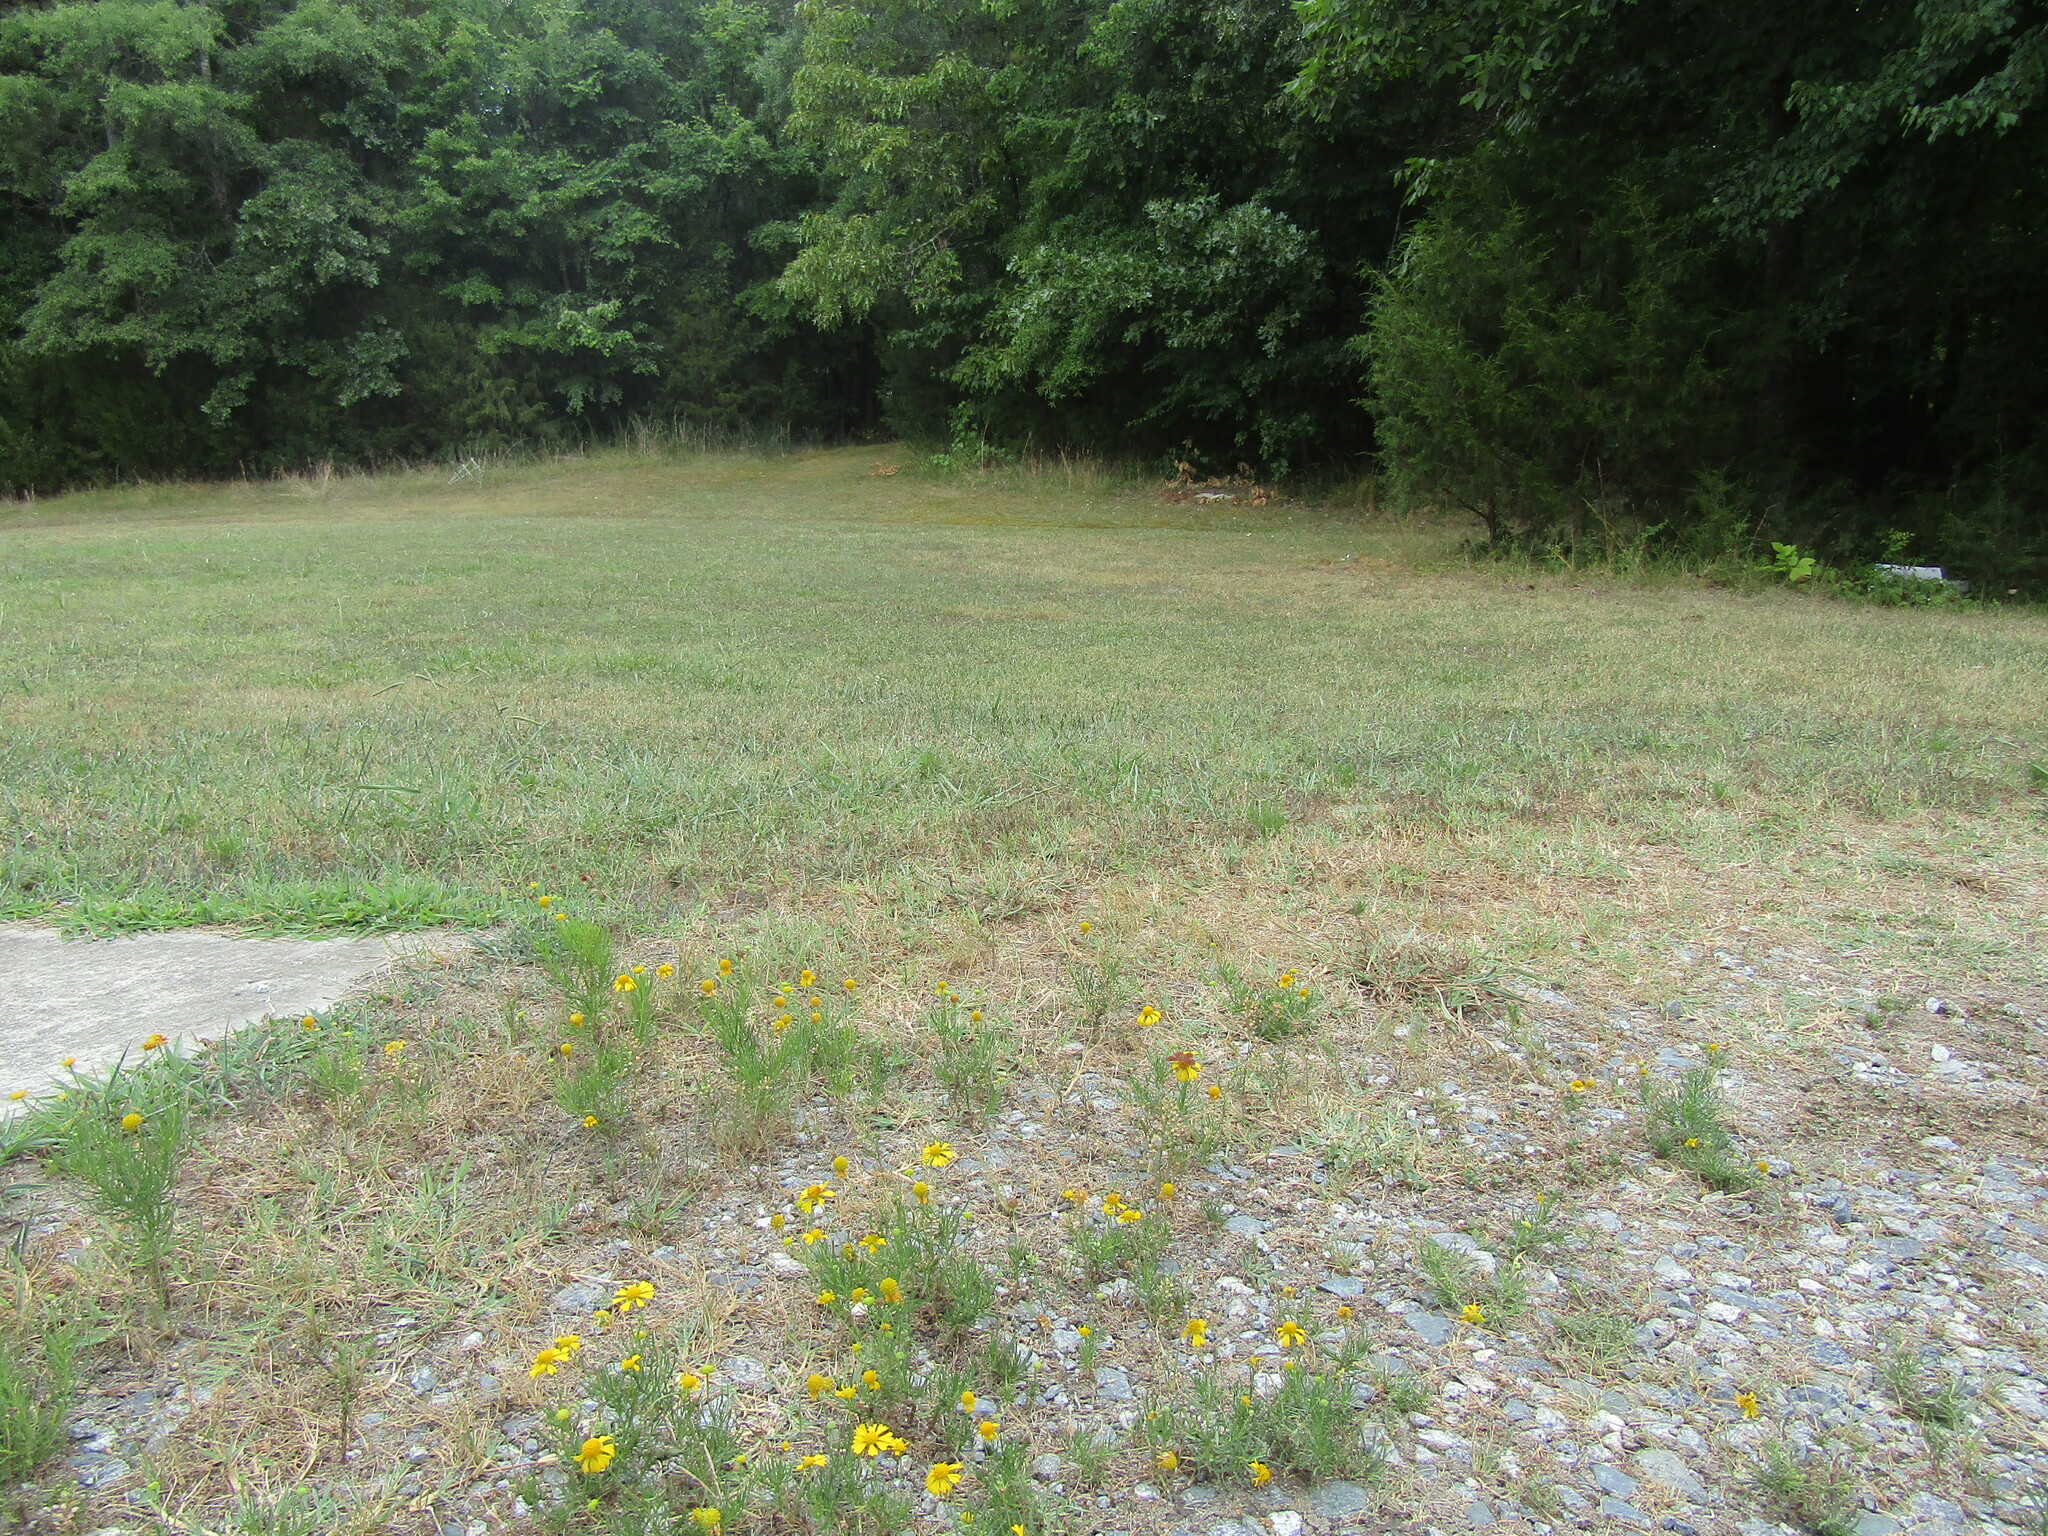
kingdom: Animalia
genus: Calephelis
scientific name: Calephelis virginiensis
